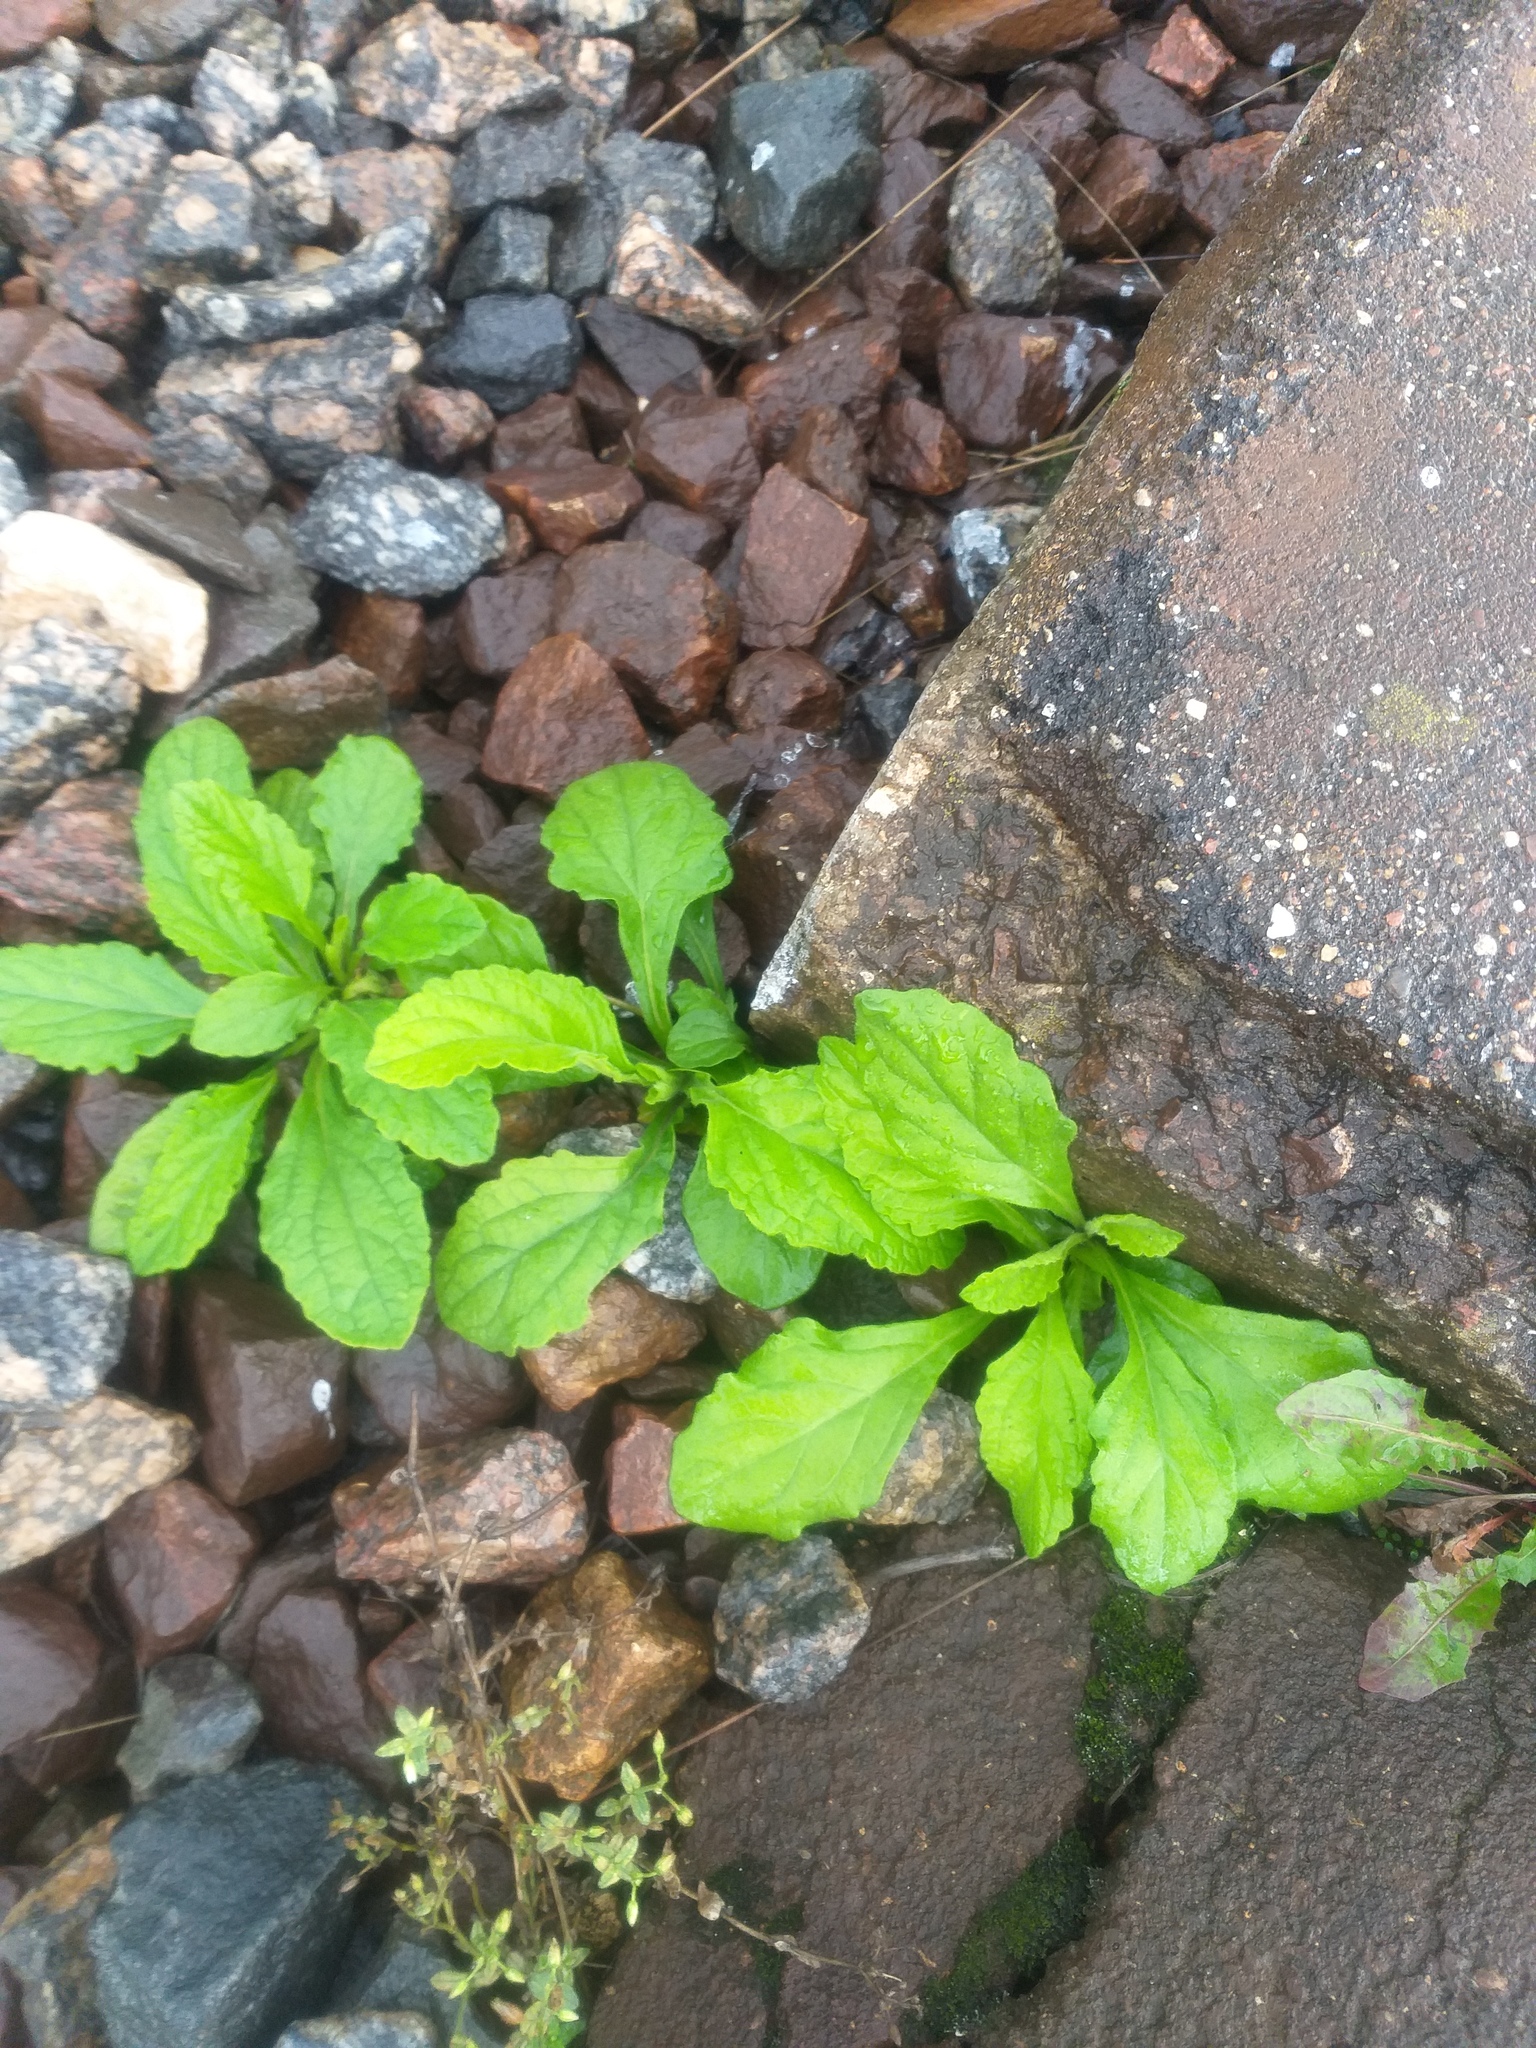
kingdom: Plantae
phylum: Tracheophyta
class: Magnoliopsida
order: Lamiales
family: Lamiaceae
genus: Ajuga
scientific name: Ajuga reptans
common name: Bugle
